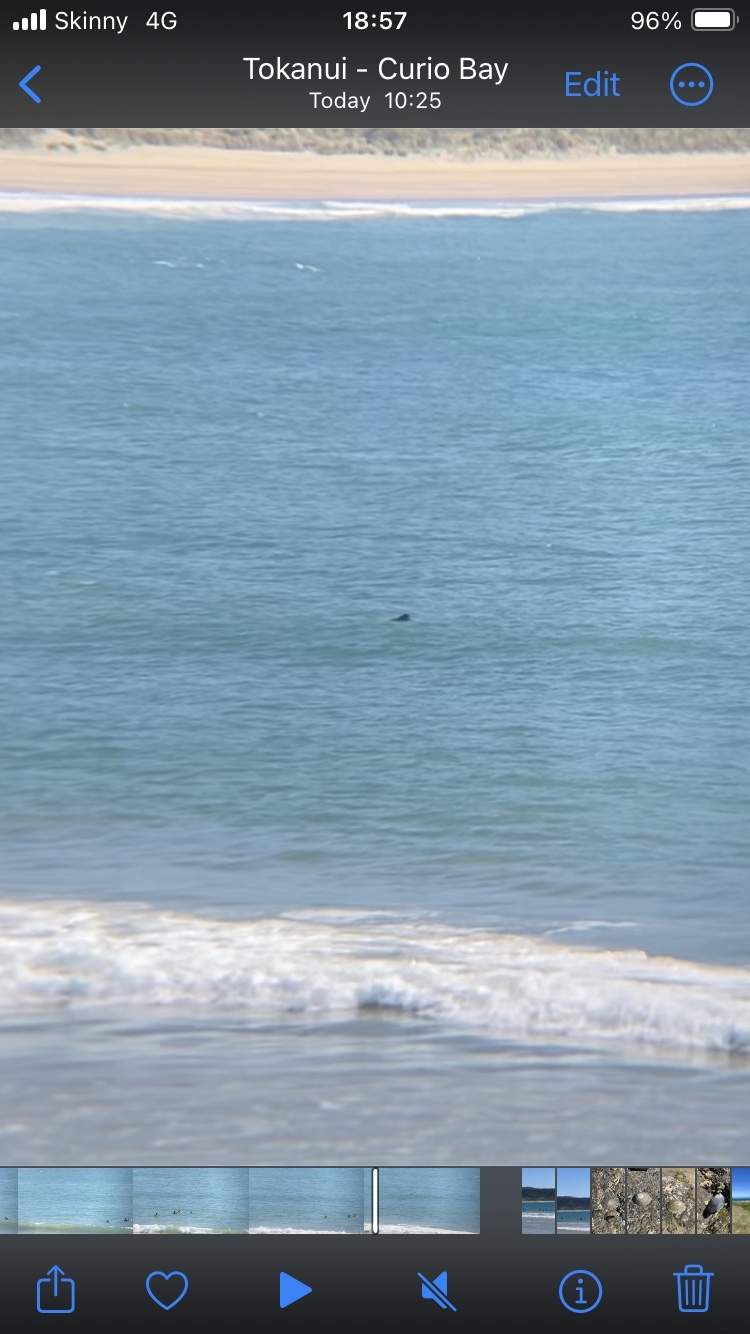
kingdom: Animalia
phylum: Chordata
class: Mammalia
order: Cetacea
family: Delphinidae
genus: Cephalorhynchus
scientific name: Cephalorhynchus hectori
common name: Hector's dolphin
